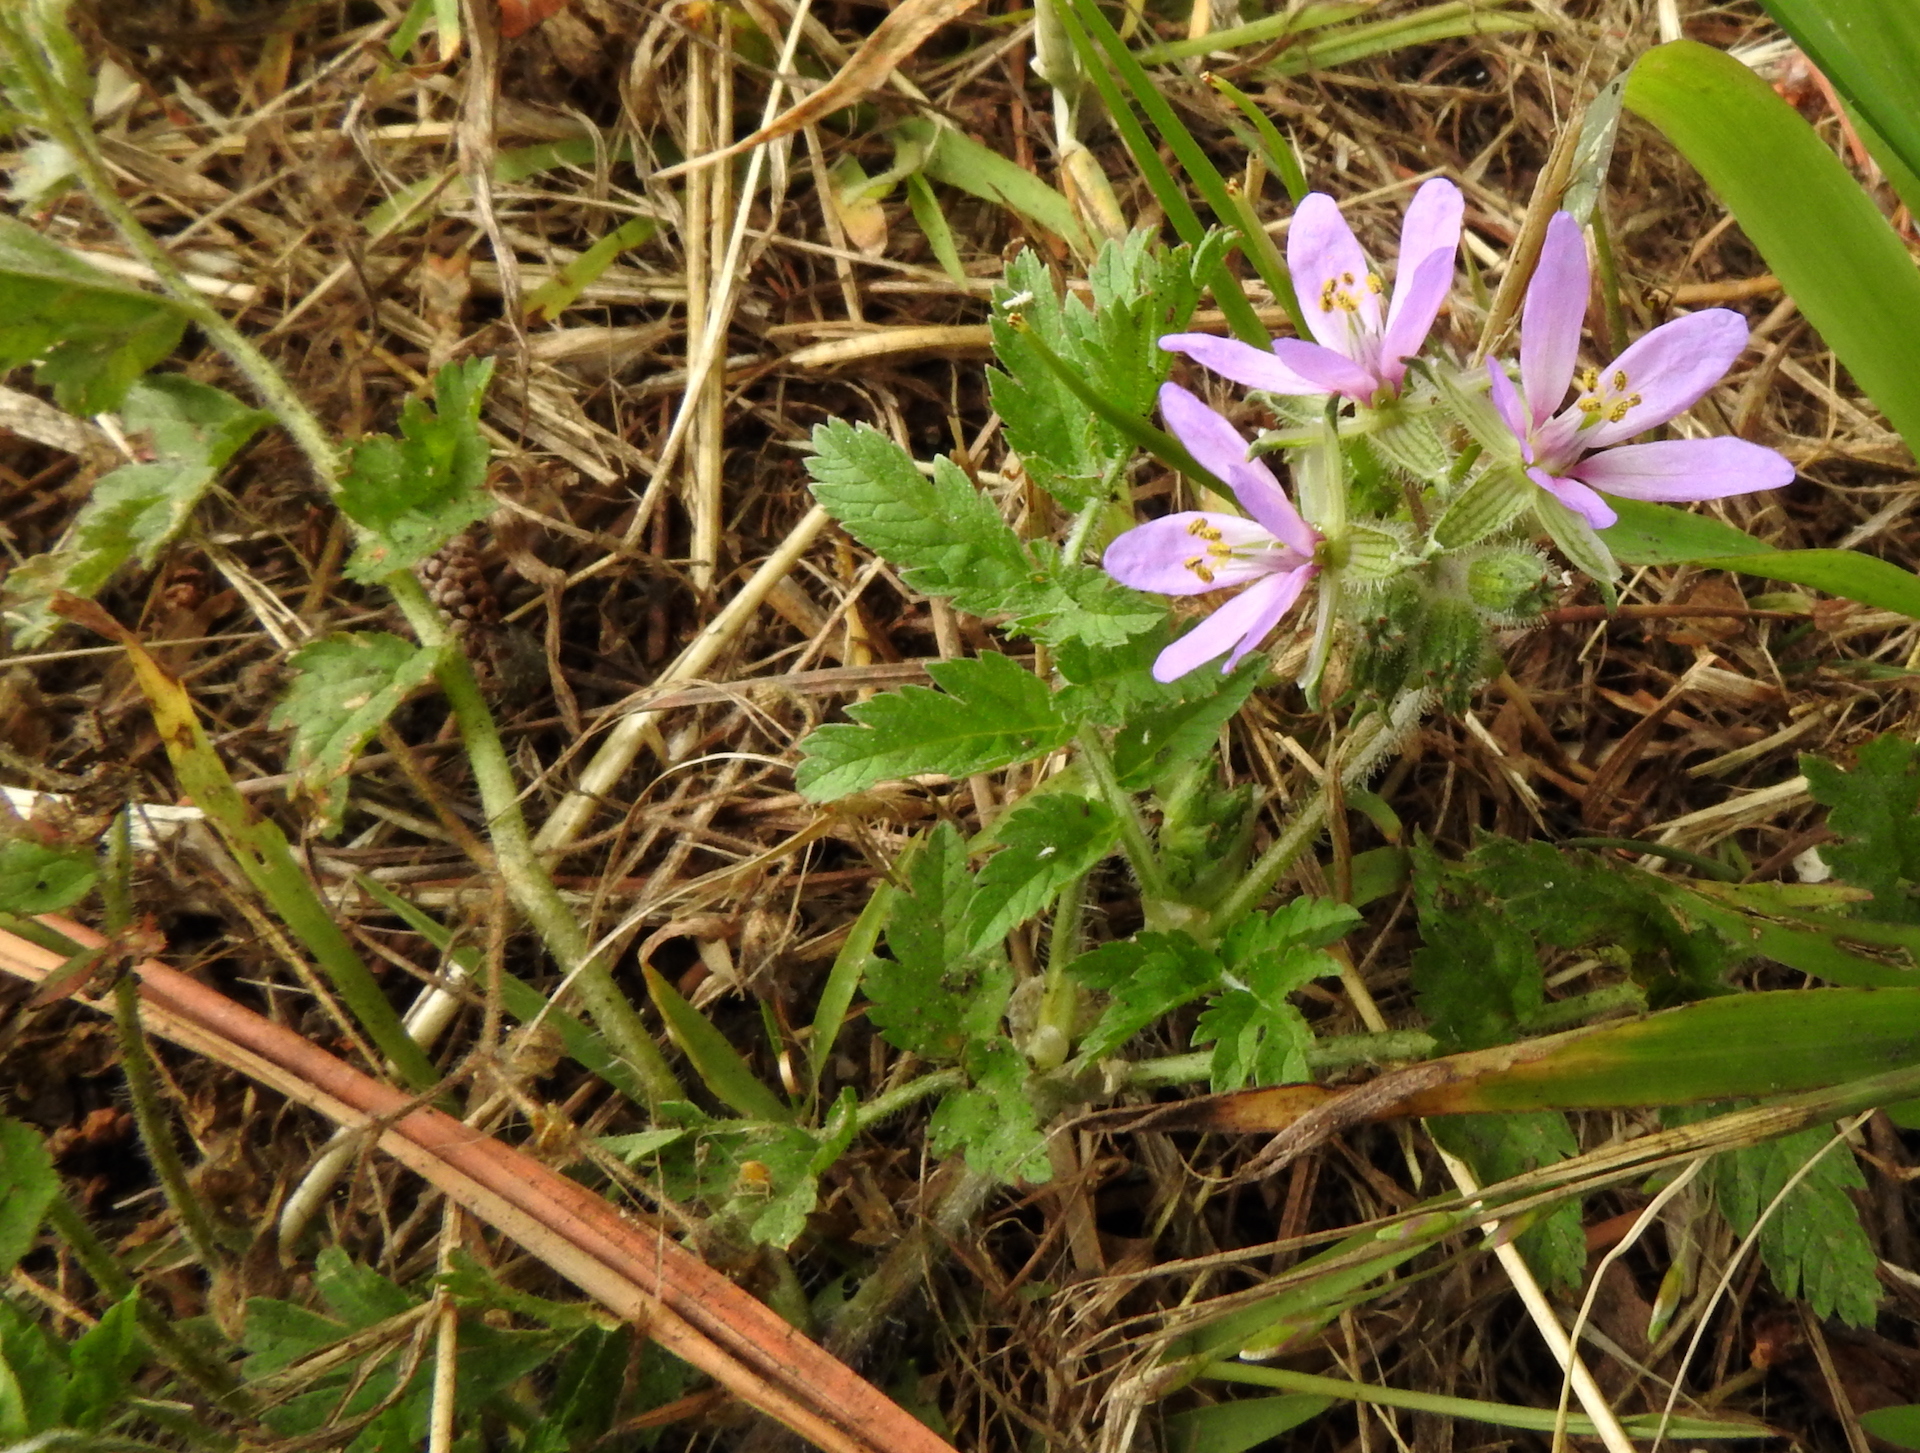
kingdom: Plantae
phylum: Tracheophyta
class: Magnoliopsida
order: Geraniales
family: Geraniaceae
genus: Erodium
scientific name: Erodium moschatum
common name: Musk stork's-bill
